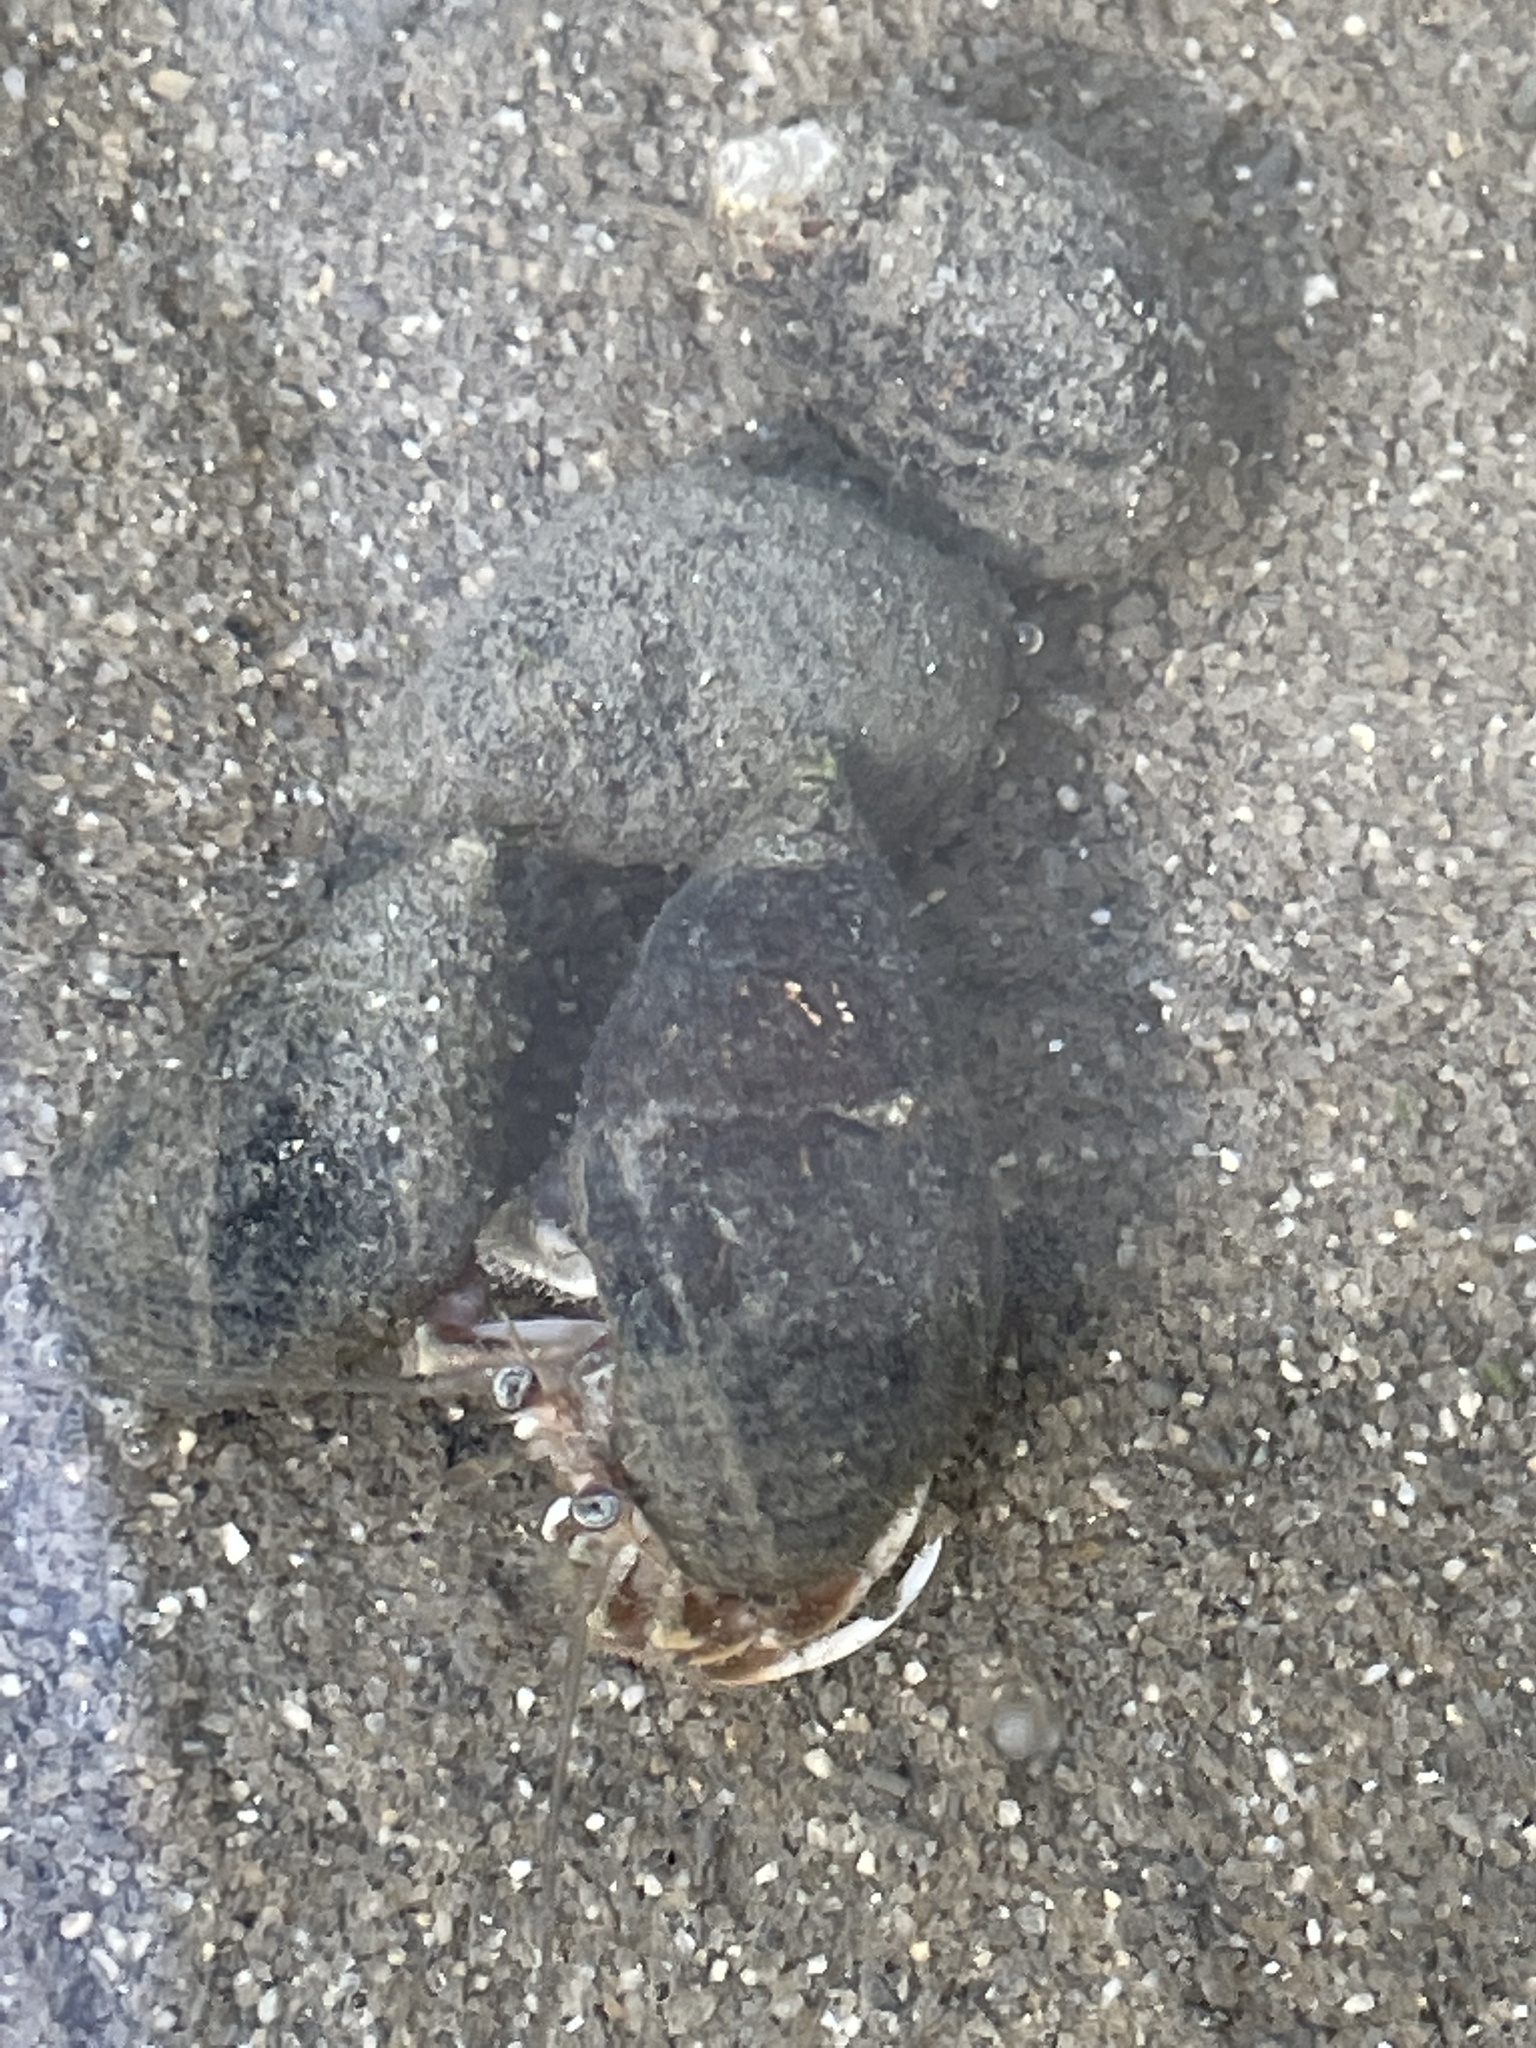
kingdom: Animalia
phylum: Arthropoda
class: Malacostraca
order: Decapoda
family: Paguridae
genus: Pagurus
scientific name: Pagurus longicarpus
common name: Long-armed hermit crab
